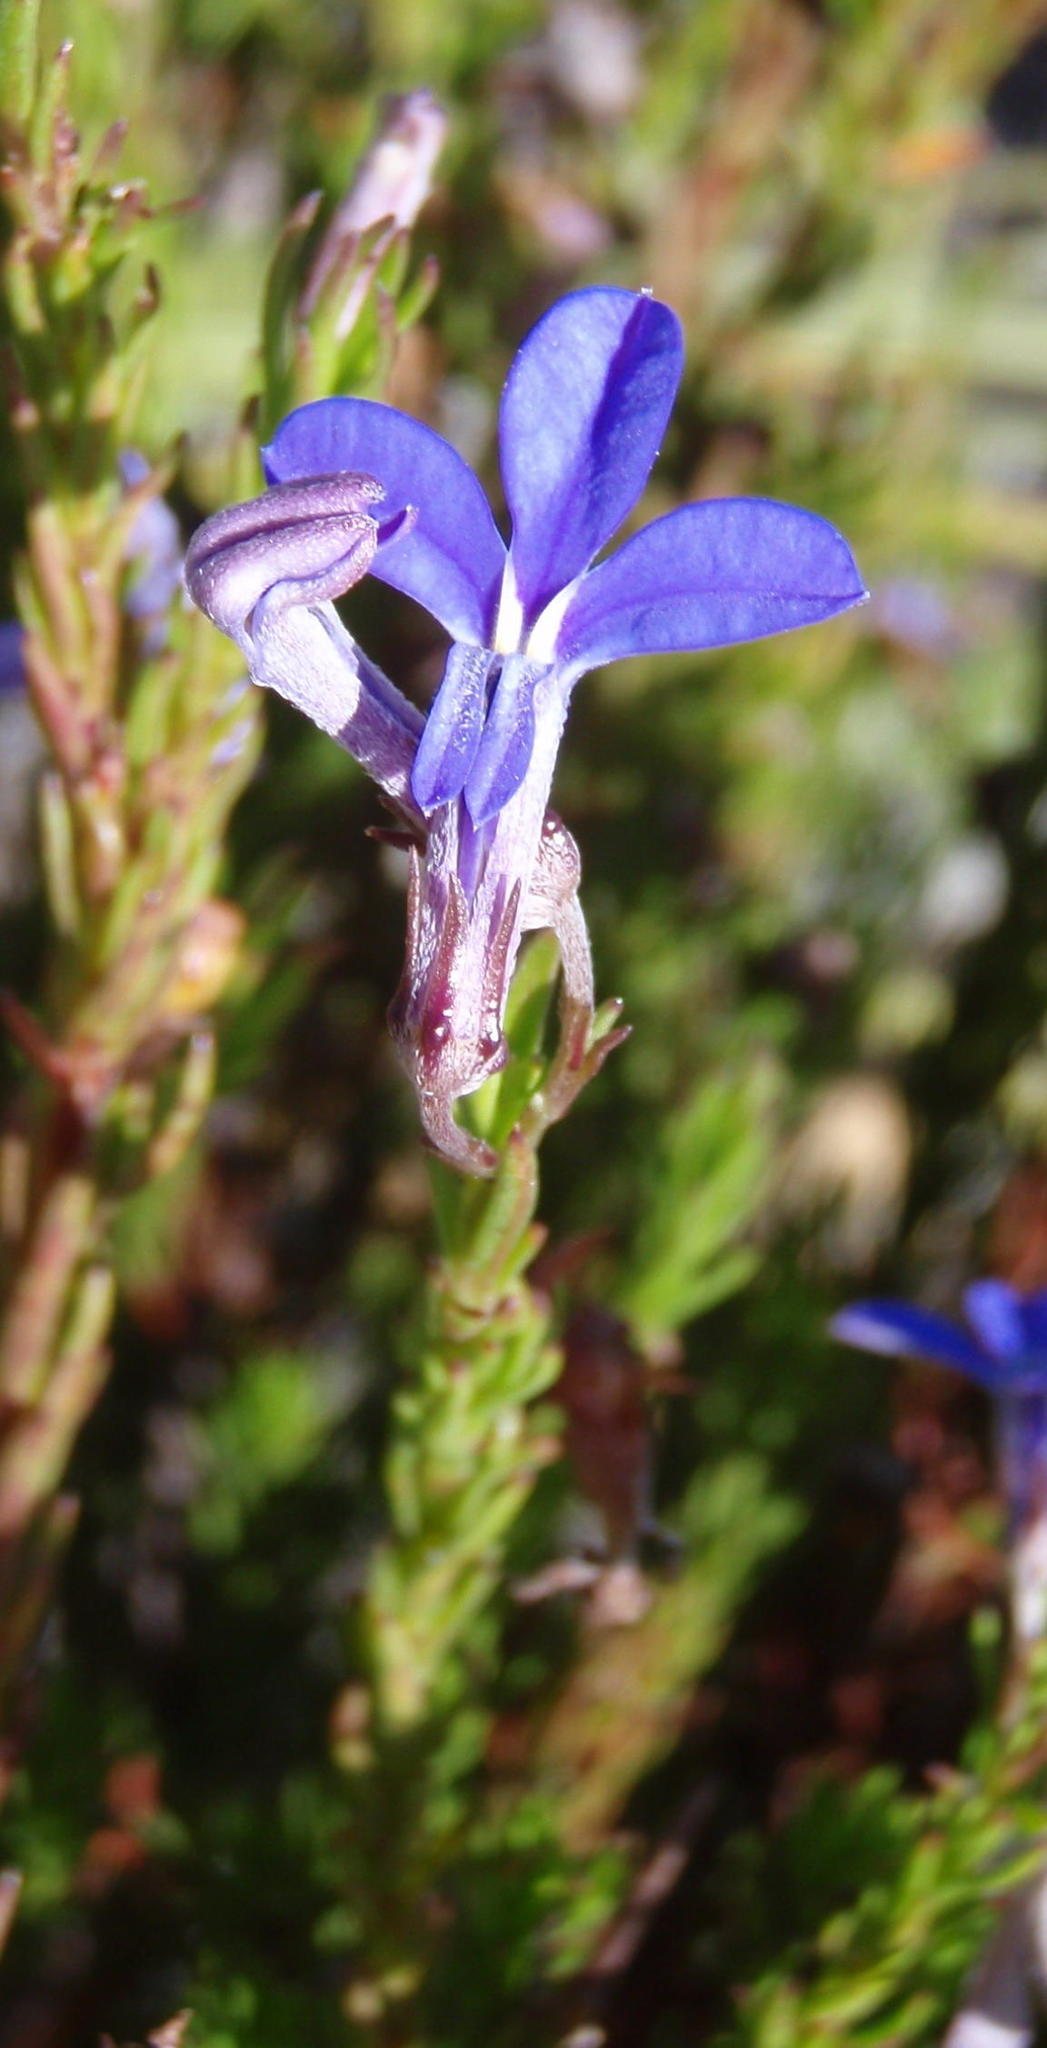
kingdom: Plantae
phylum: Tracheophyta
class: Magnoliopsida
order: Asterales
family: Campanulaceae
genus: Lobelia
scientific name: Lobelia pinifolia
